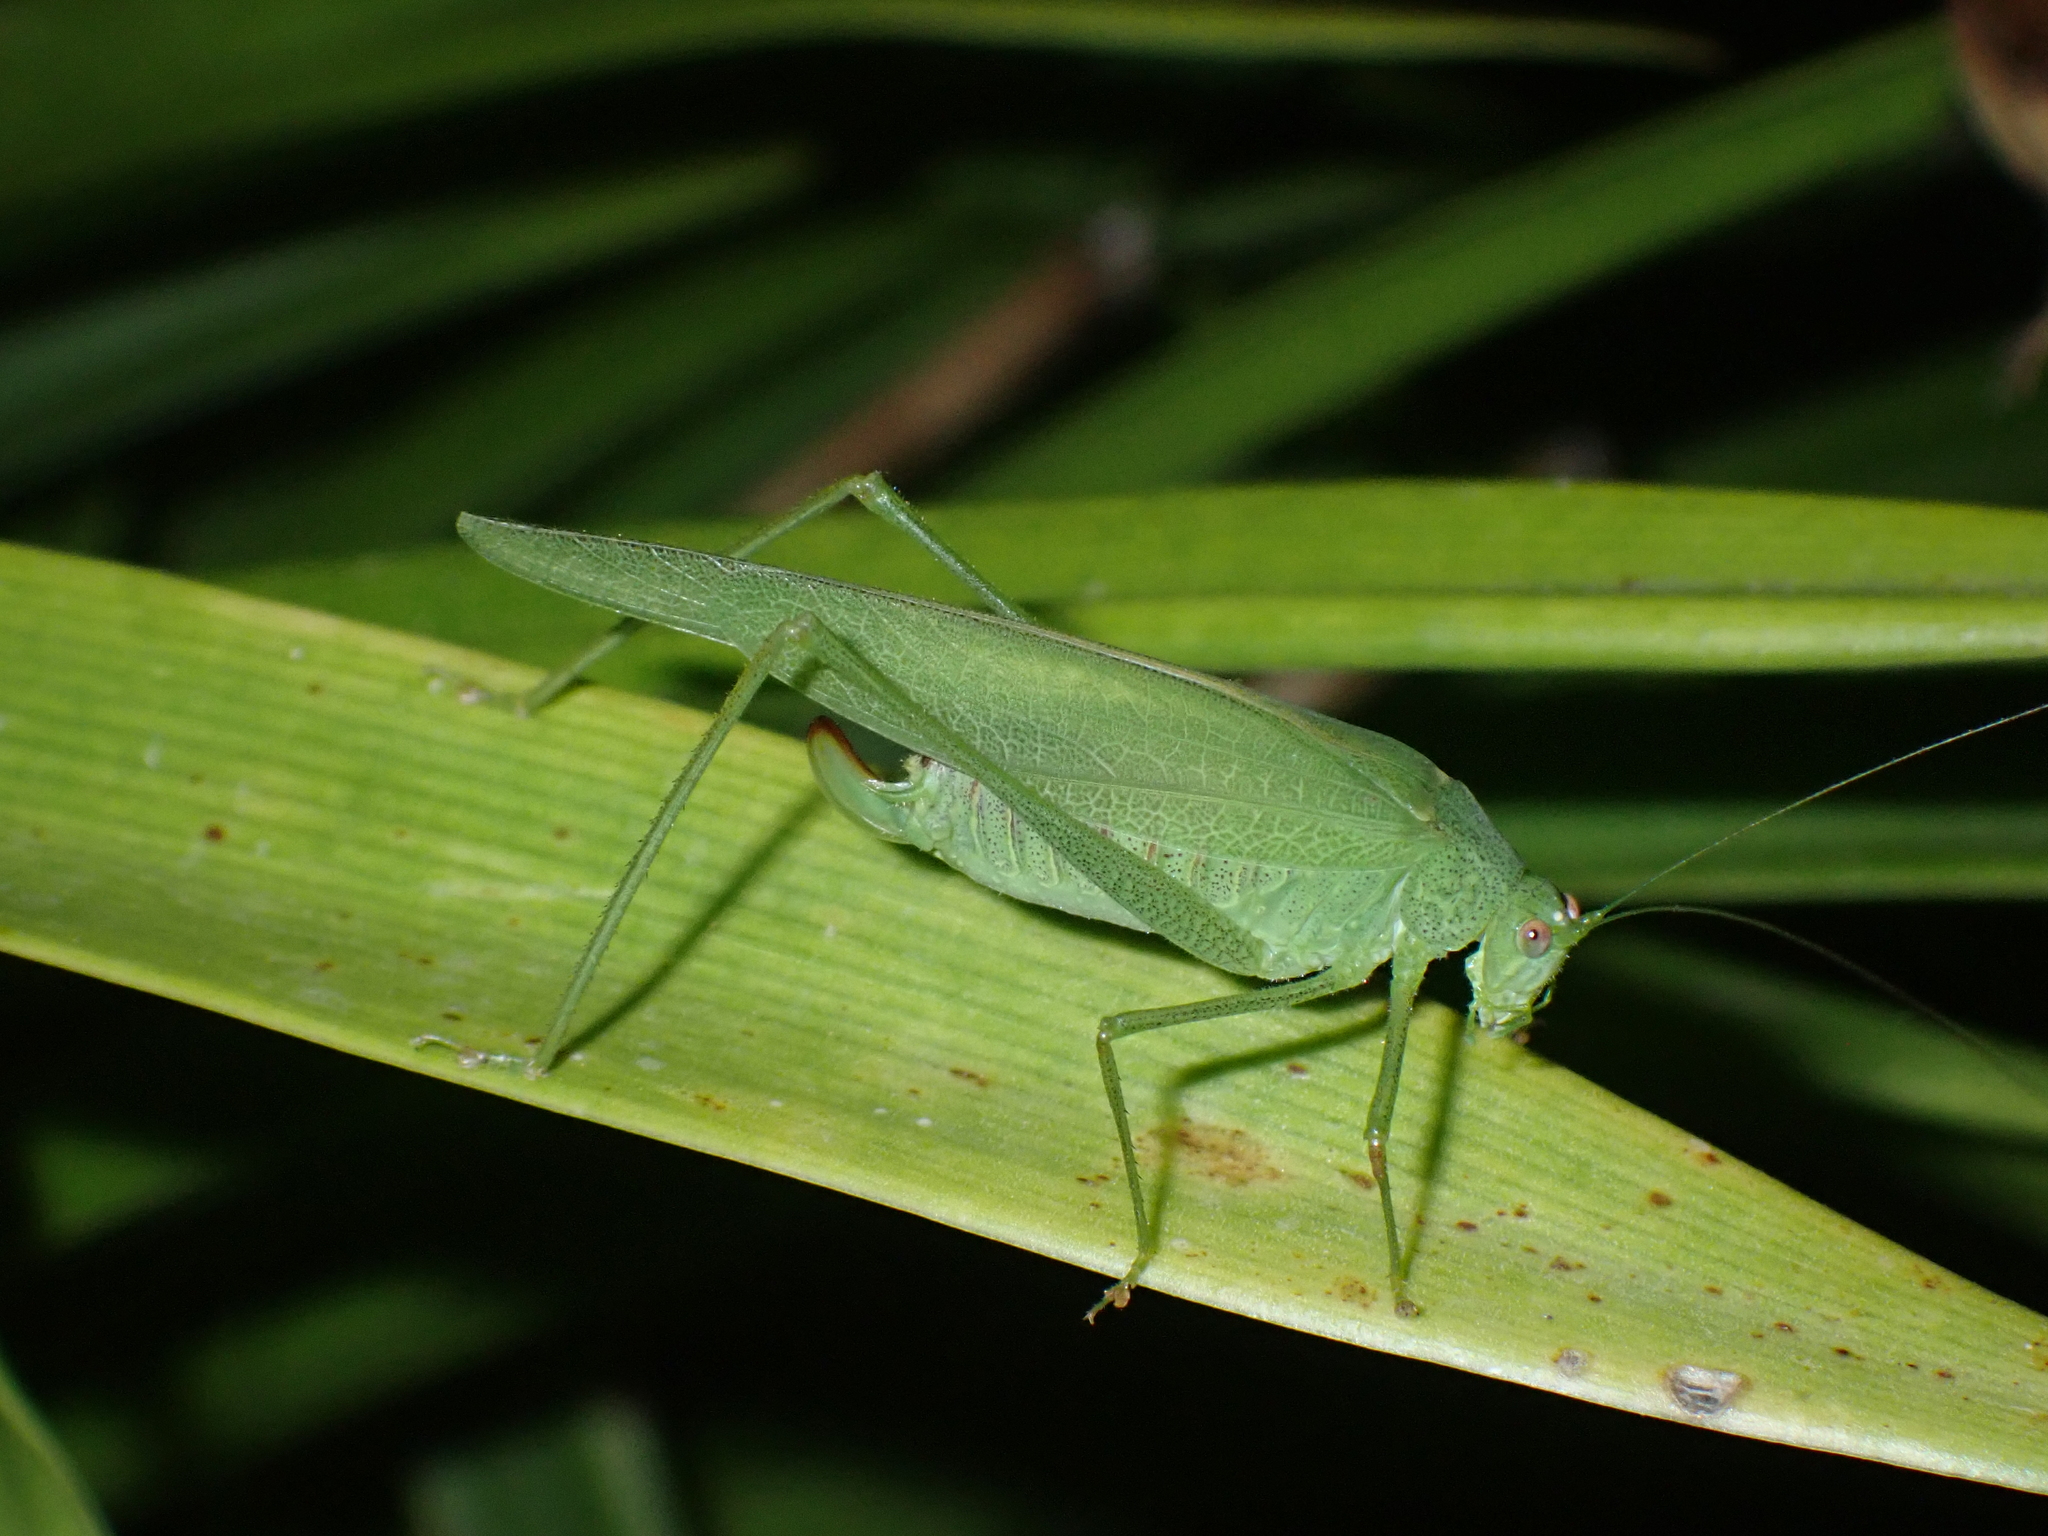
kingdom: Animalia
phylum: Arthropoda
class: Insecta
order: Orthoptera
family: Tettigoniidae
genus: Phaneroptera
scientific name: Phaneroptera nana
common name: Southern sickle bush-cricket
